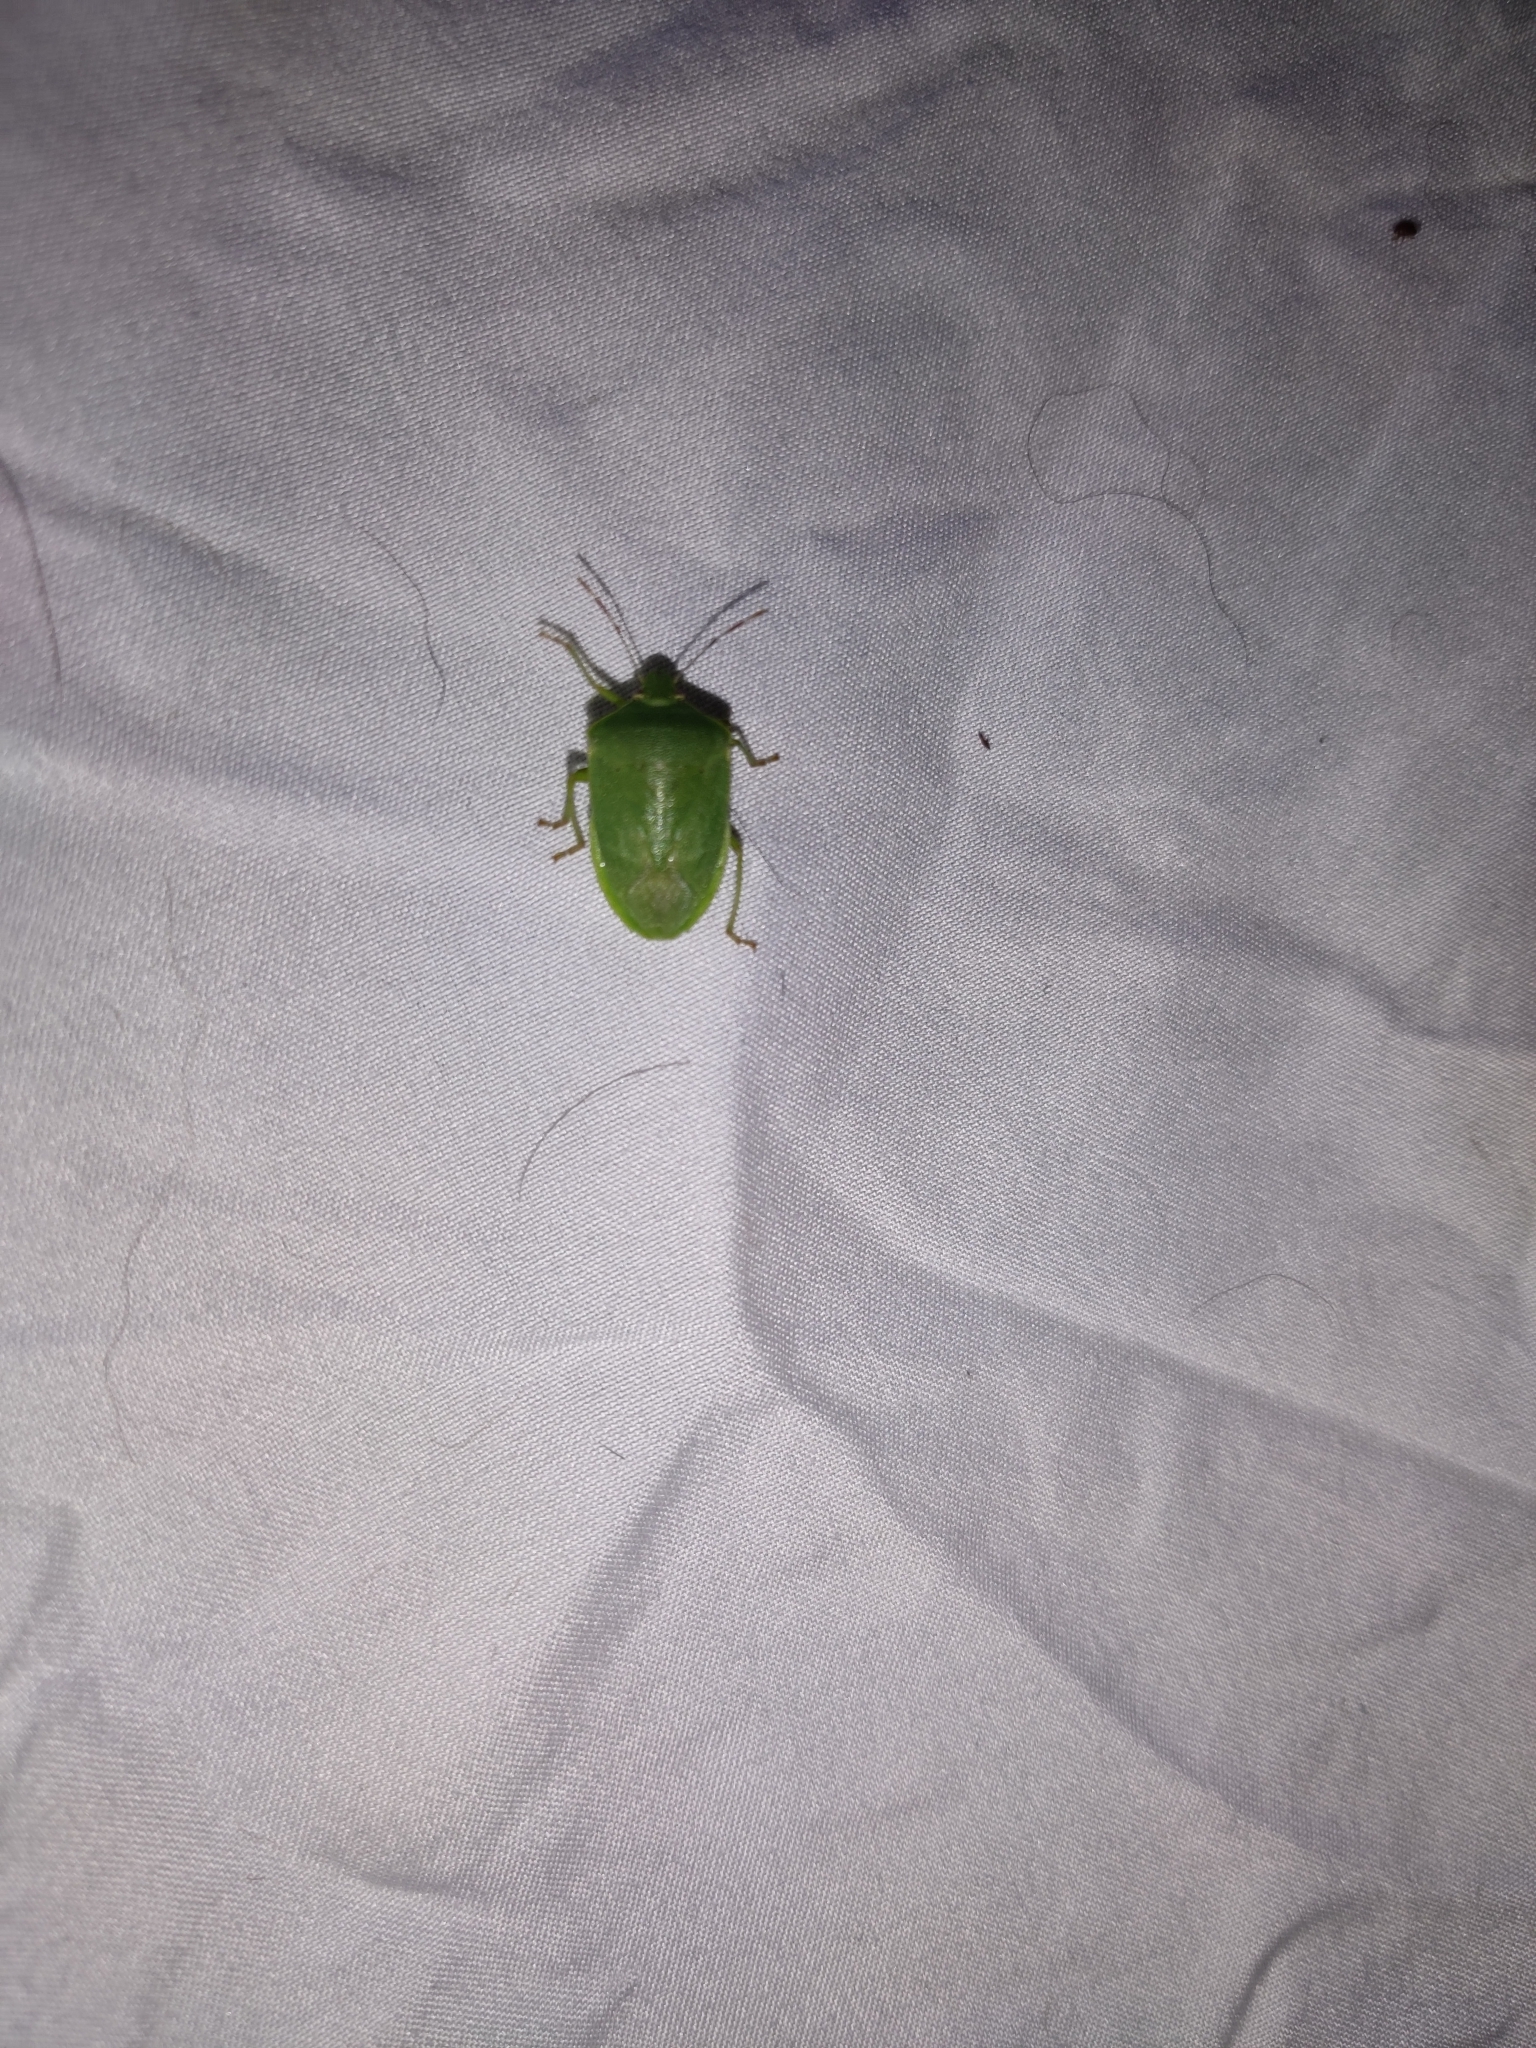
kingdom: Animalia
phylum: Arthropoda
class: Insecta
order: Hemiptera
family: Pentatomidae
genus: Chinavia
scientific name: Chinavia hilaris
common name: Green stink bug
